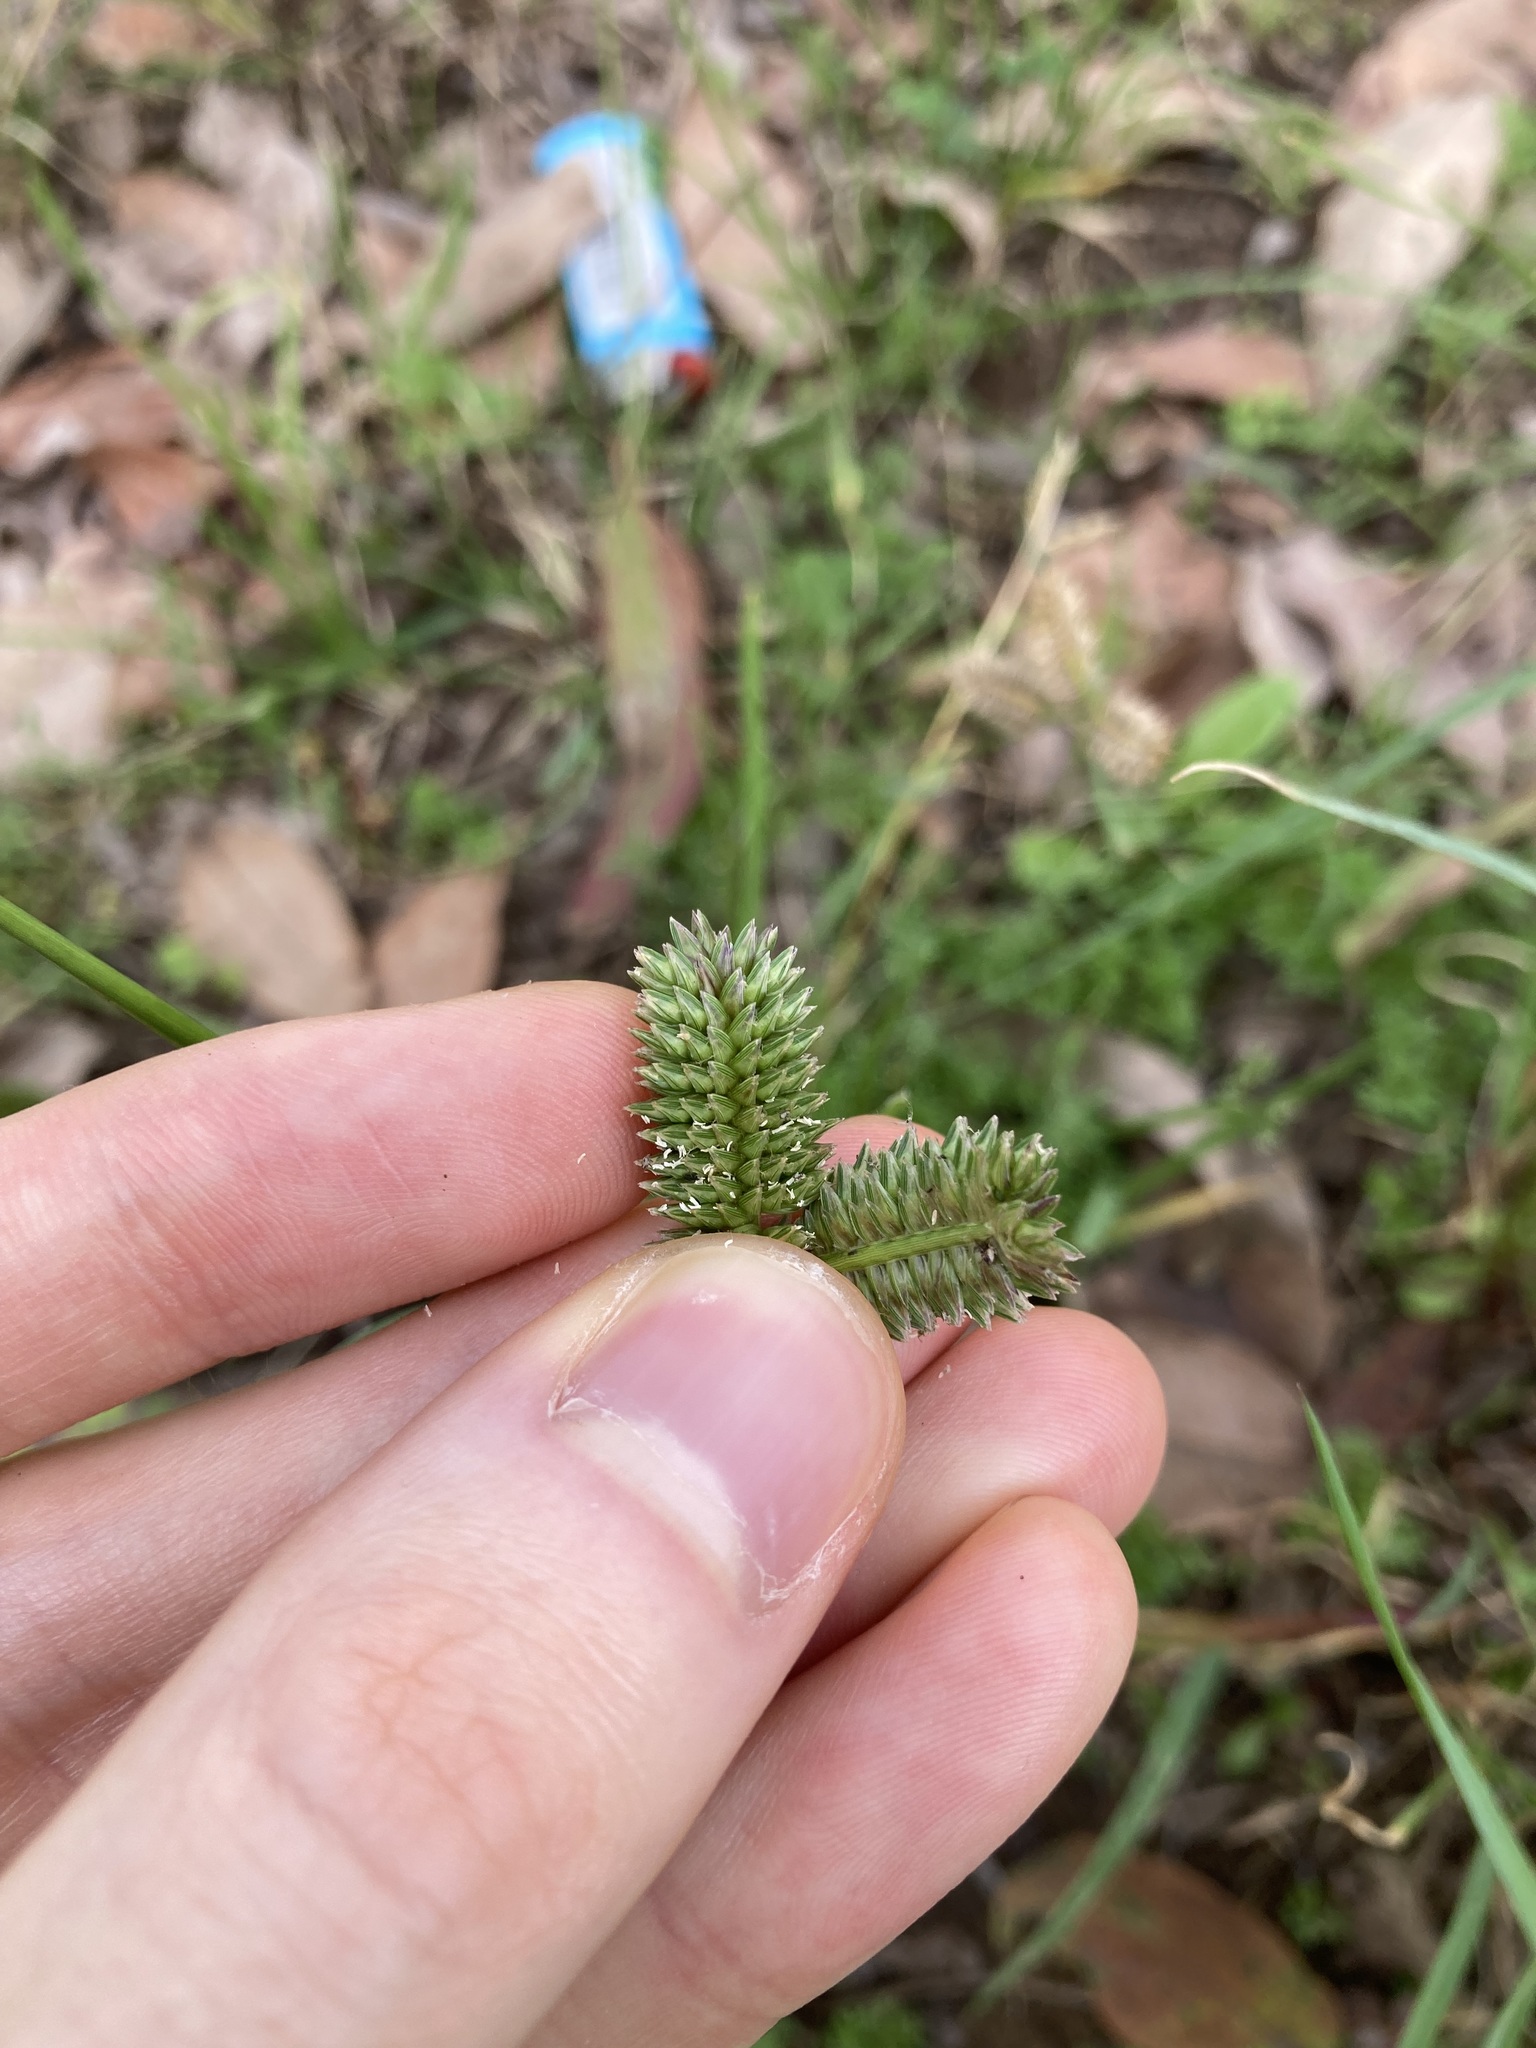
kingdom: Plantae
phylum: Tracheophyta
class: Liliopsida
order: Poales
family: Poaceae
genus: Eleusine
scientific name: Eleusine tristachya
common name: American yard-grass
